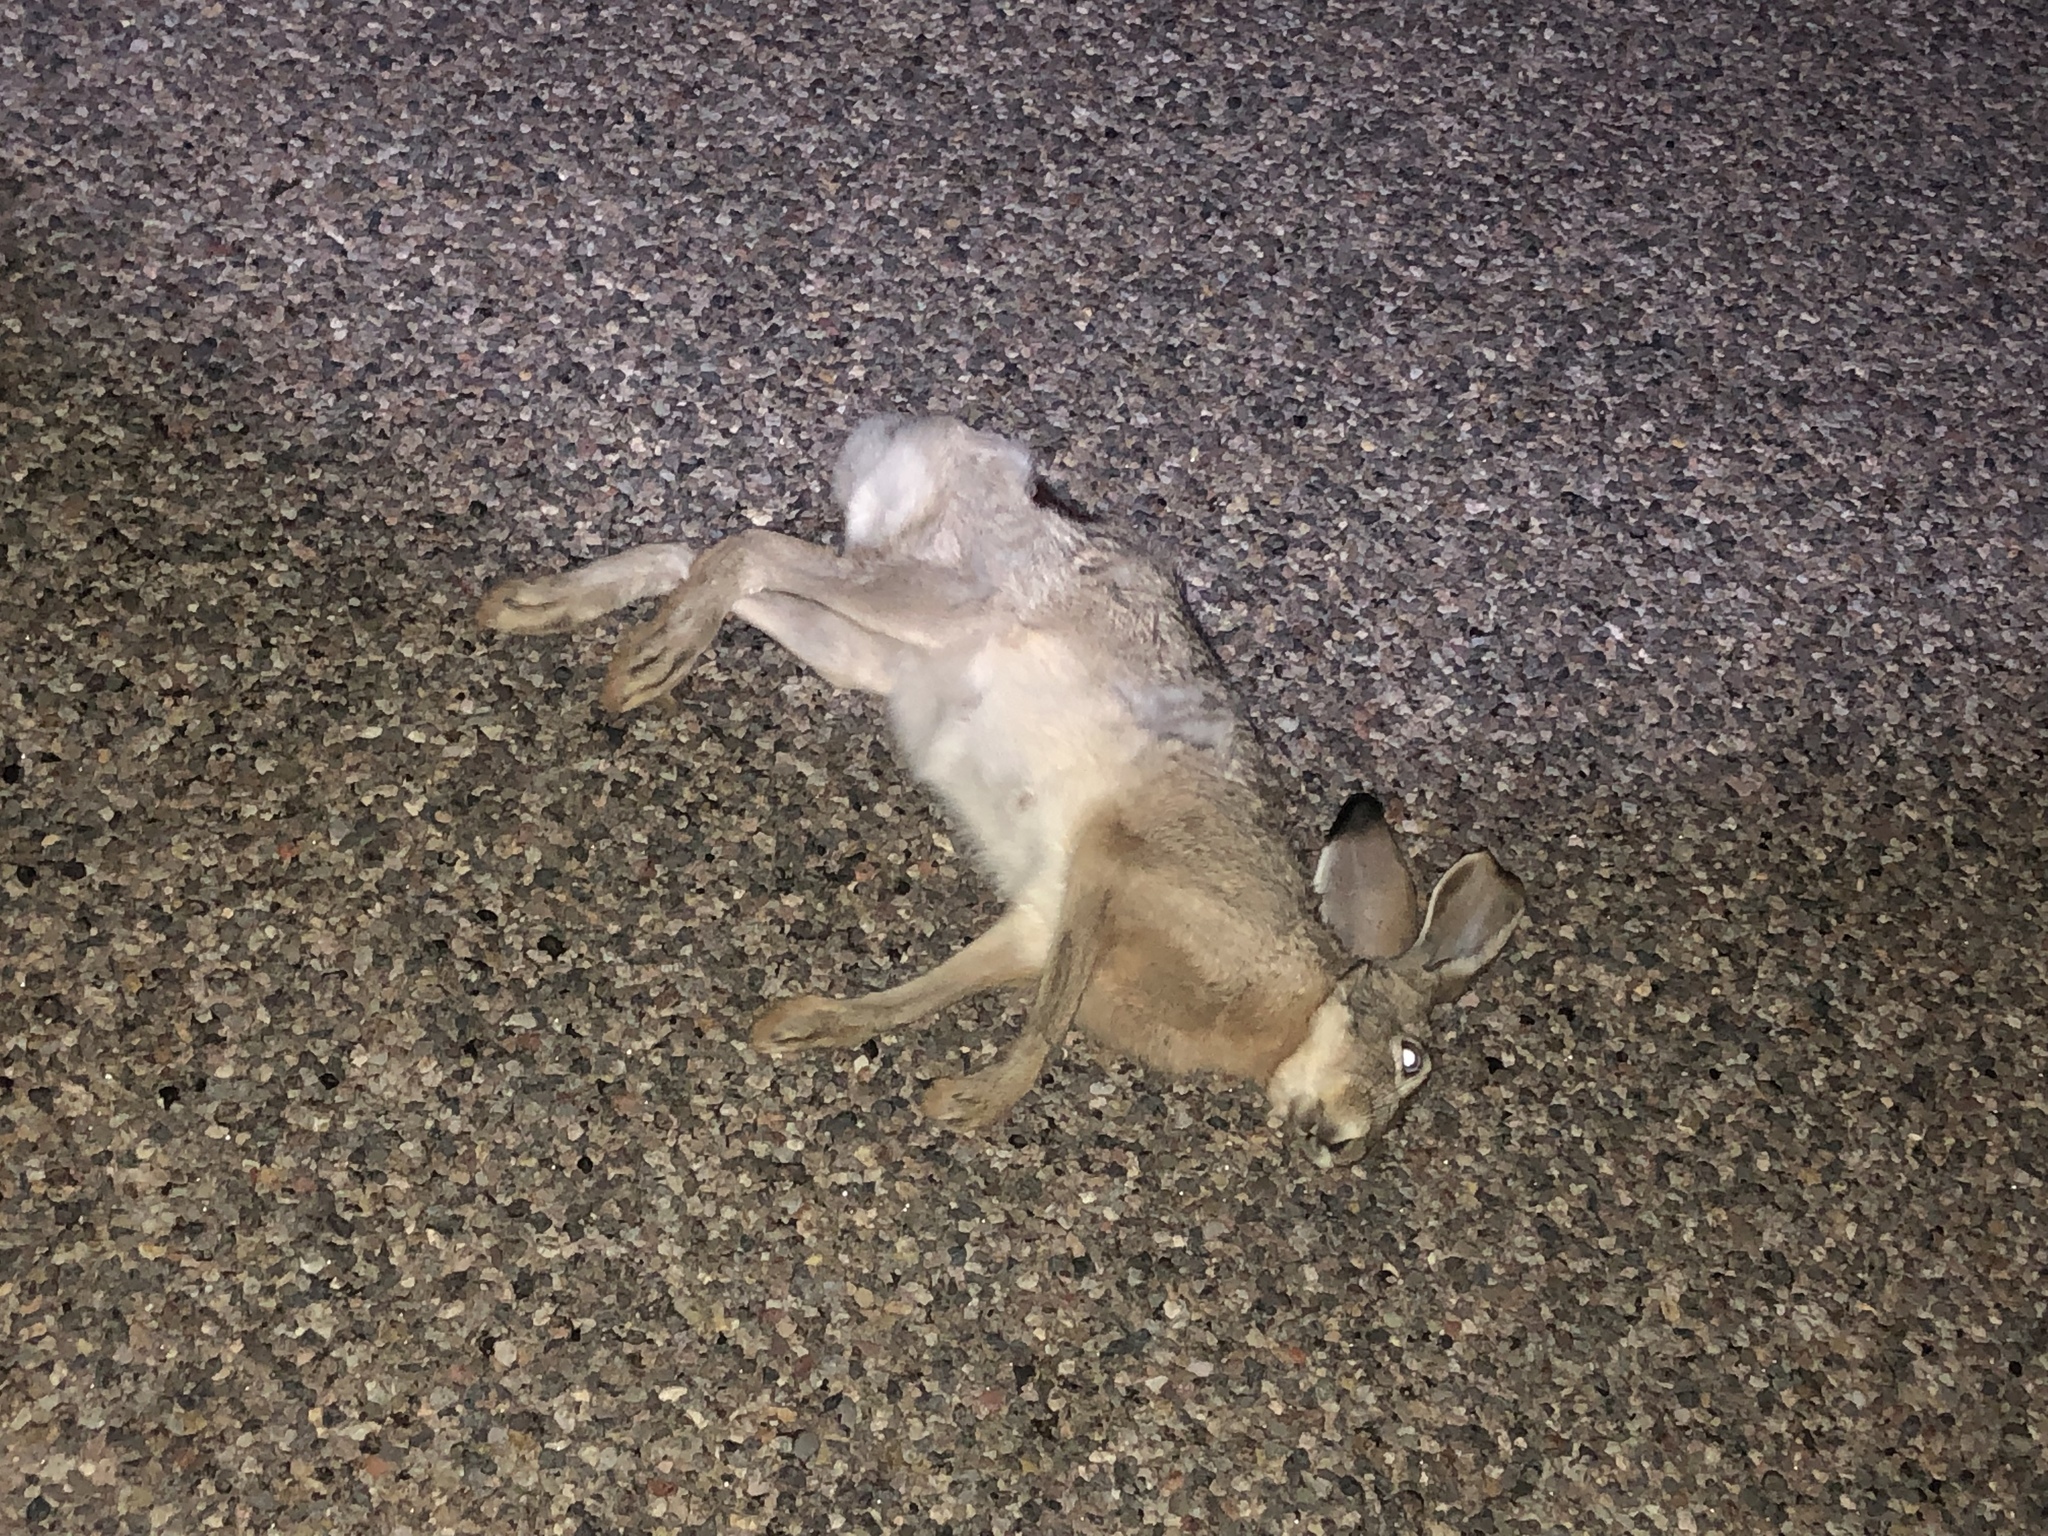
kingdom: Animalia
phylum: Chordata
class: Mammalia
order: Lagomorpha
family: Leporidae
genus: Lepus
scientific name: Lepus californicus
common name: Black-tailed jackrabbit
